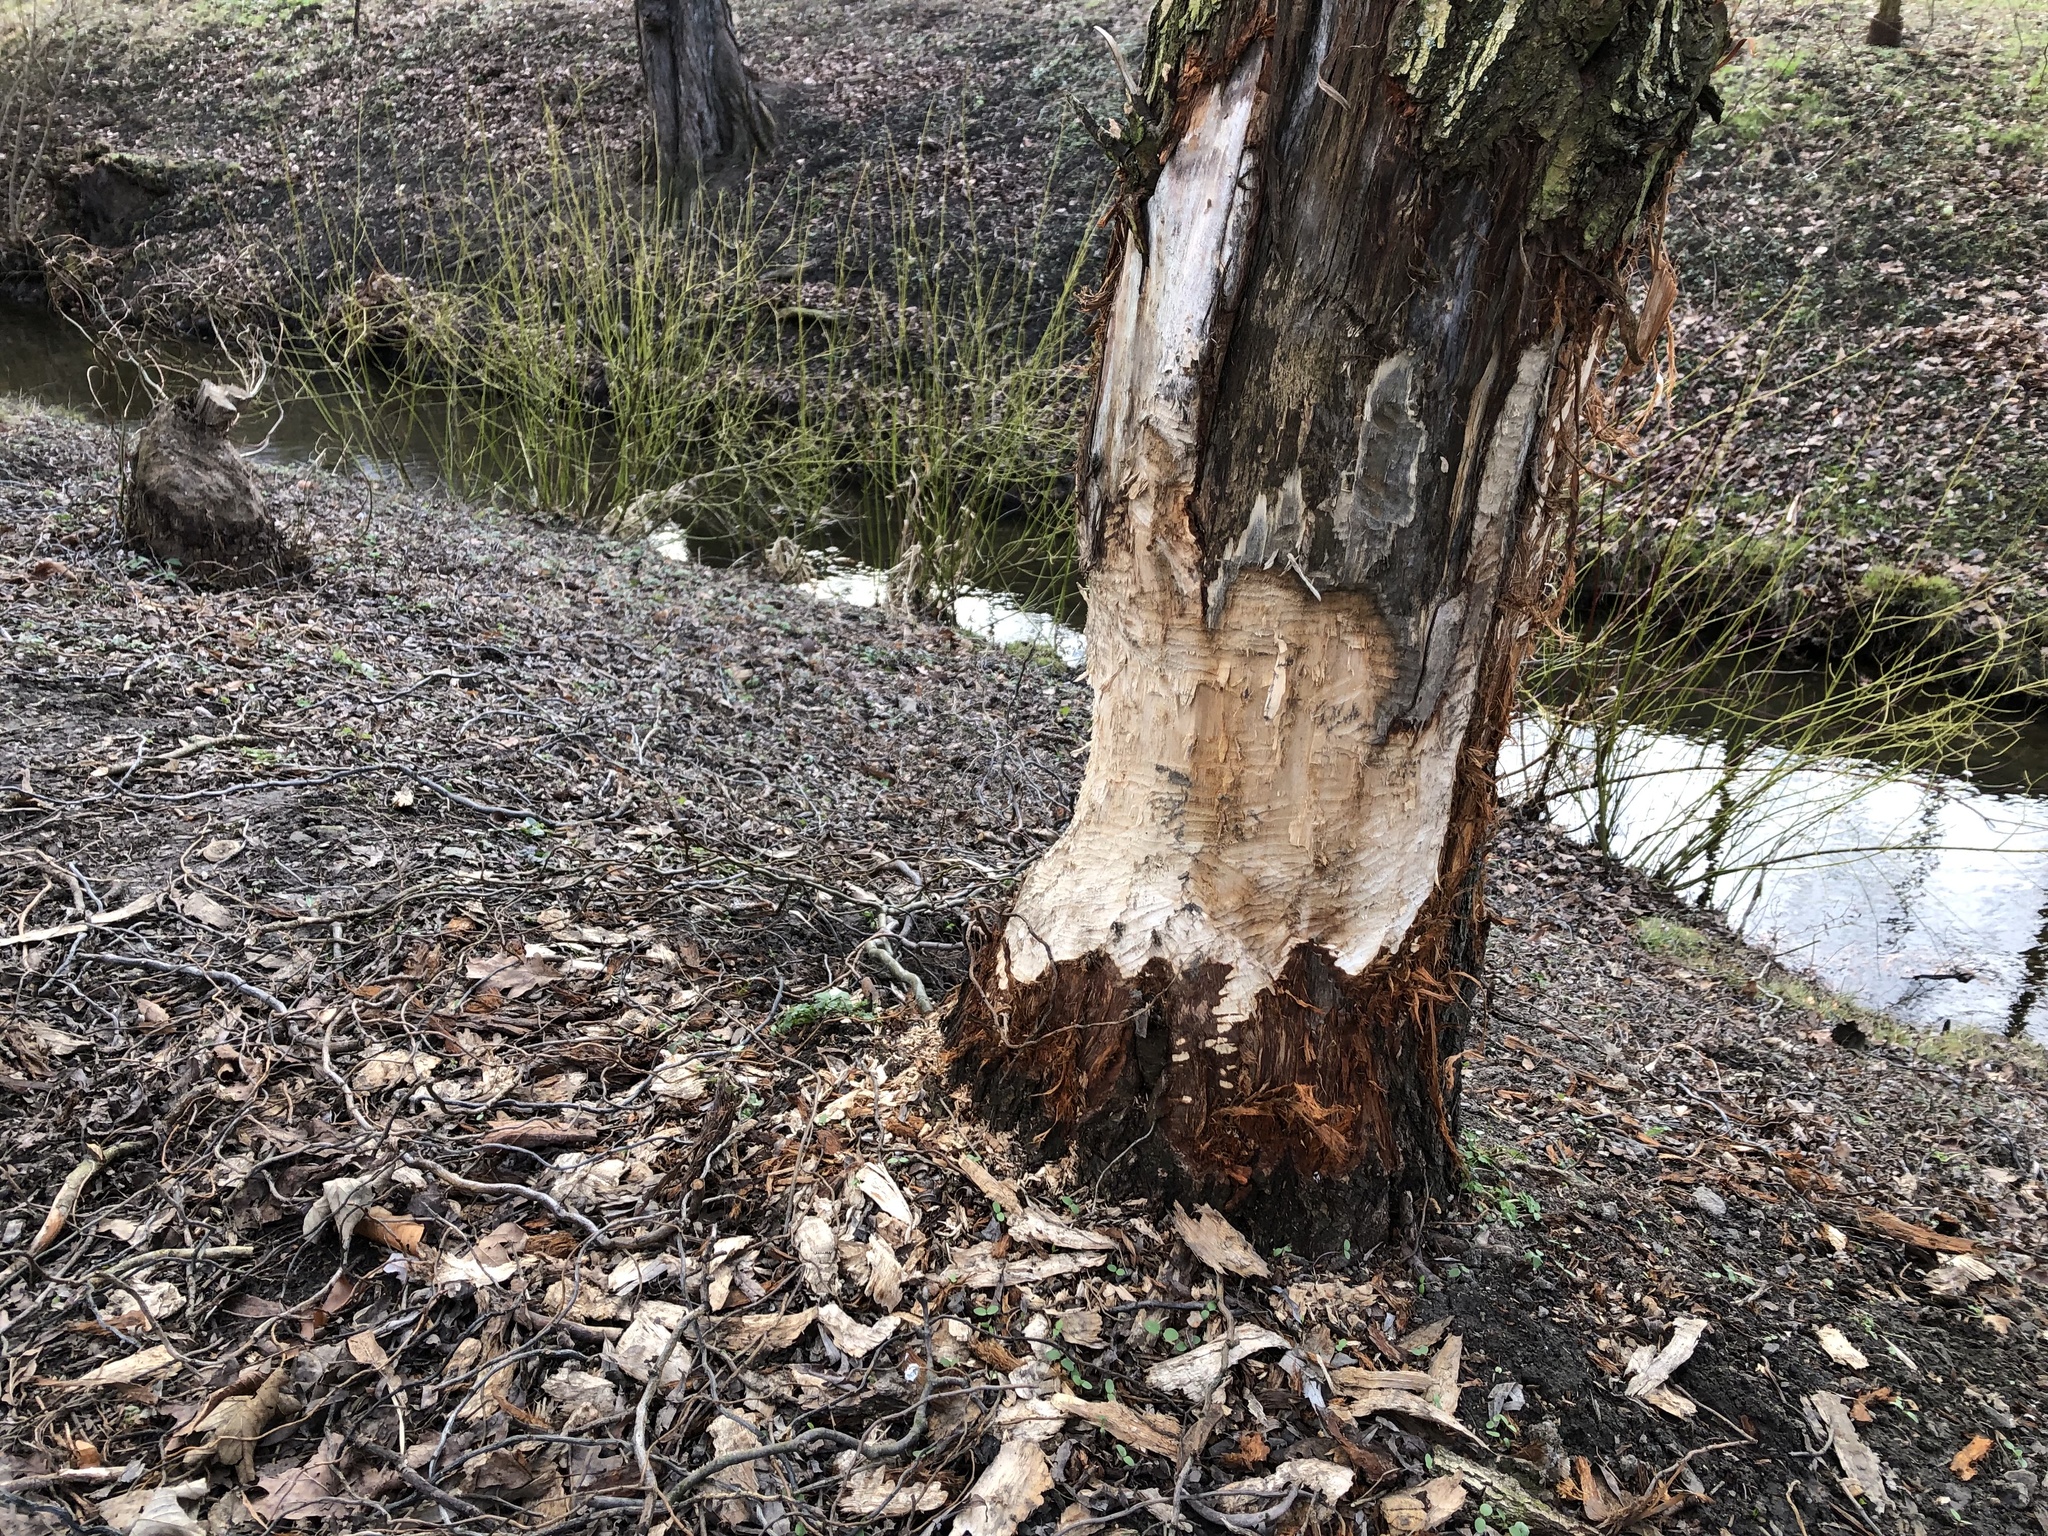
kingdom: Animalia
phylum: Chordata
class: Mammalia
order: Rodentia
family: Castoridae
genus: Castor
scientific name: Castor fiber
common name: Eurasian beaver
